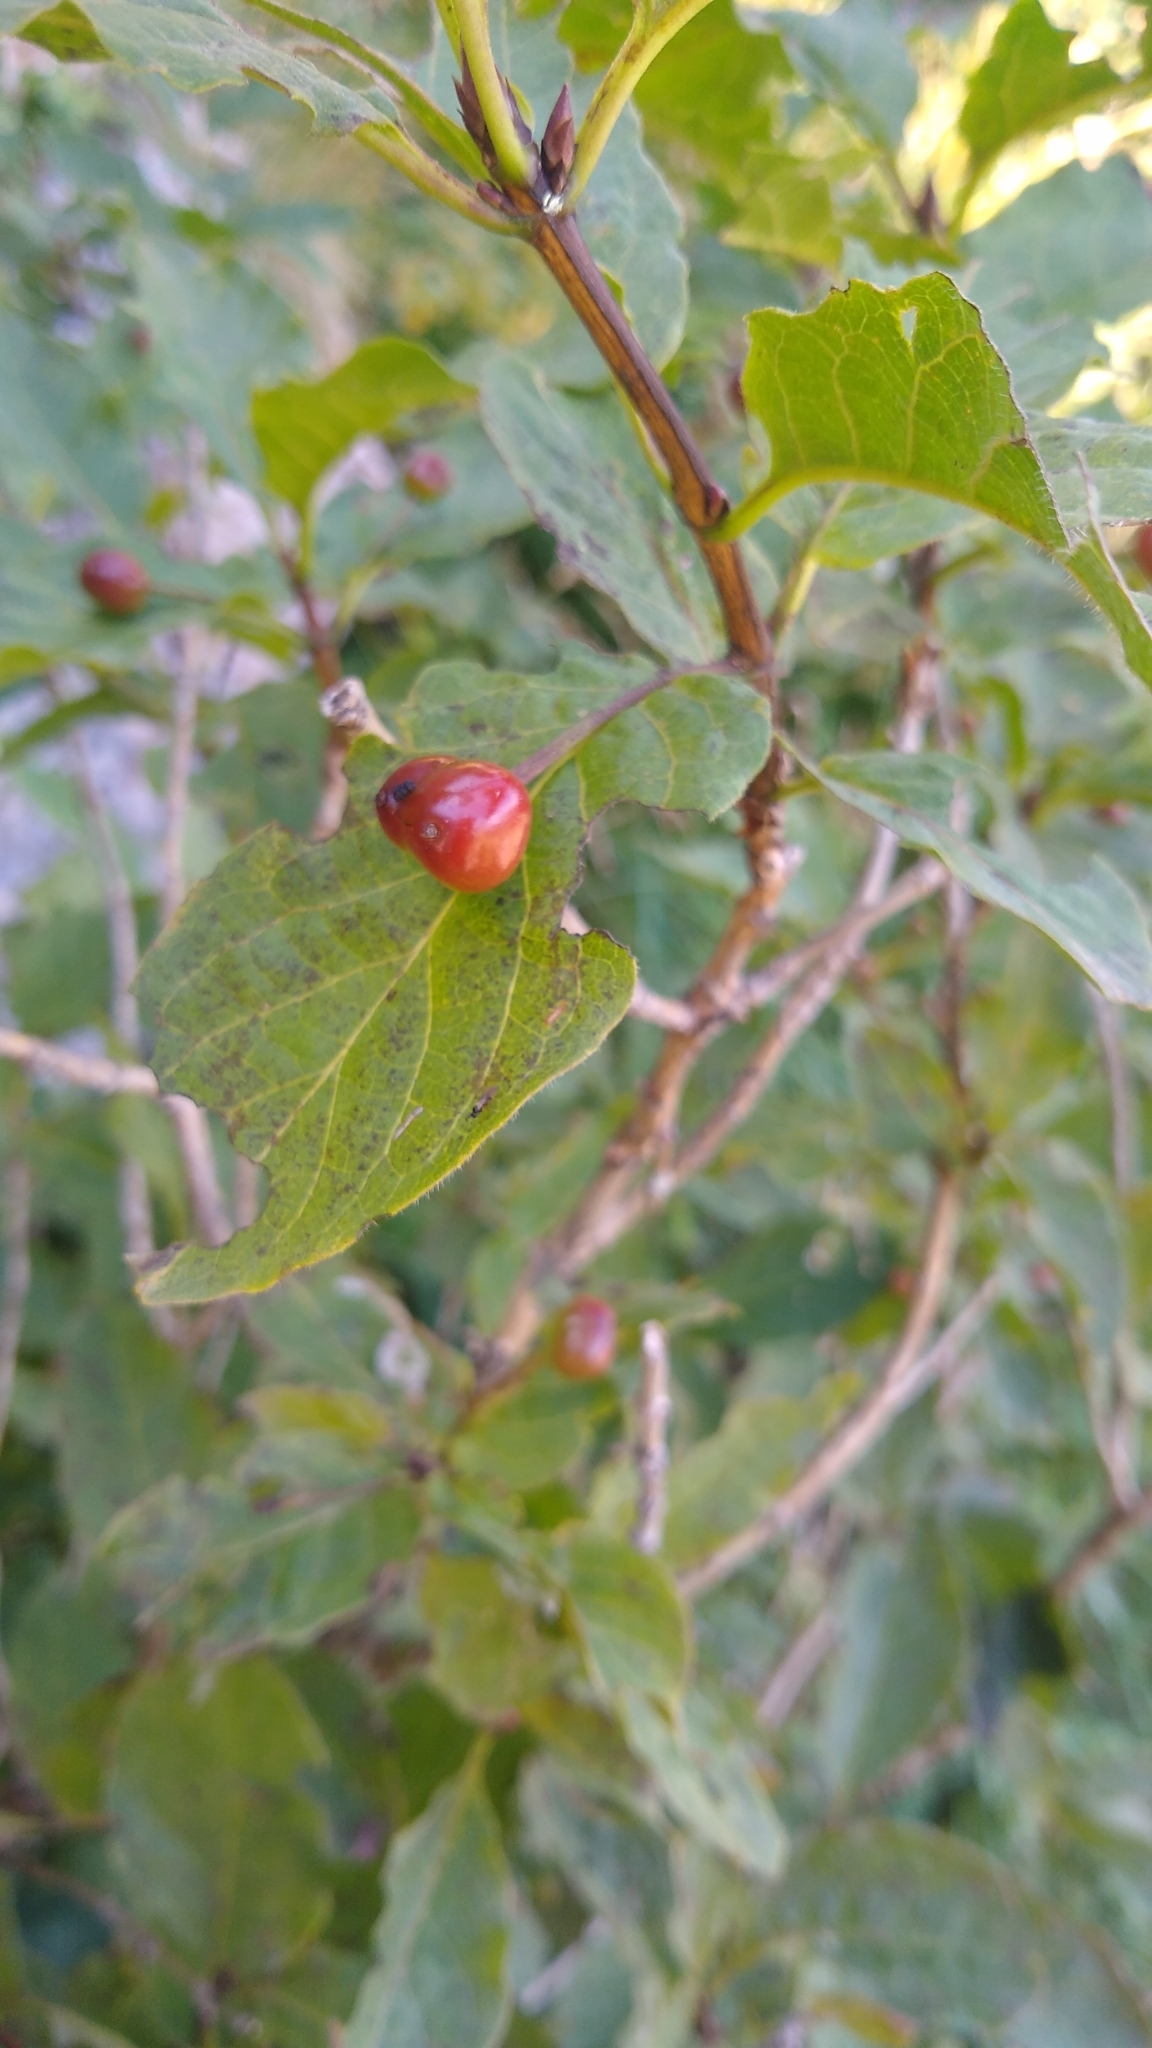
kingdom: Plantae
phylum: Tracheophyta
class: Magnoliopsida
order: Dipsacales
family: Caprifoliaceae
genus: Lonicera
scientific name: Lonicera alpigena
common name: Alpine honeysuckle
